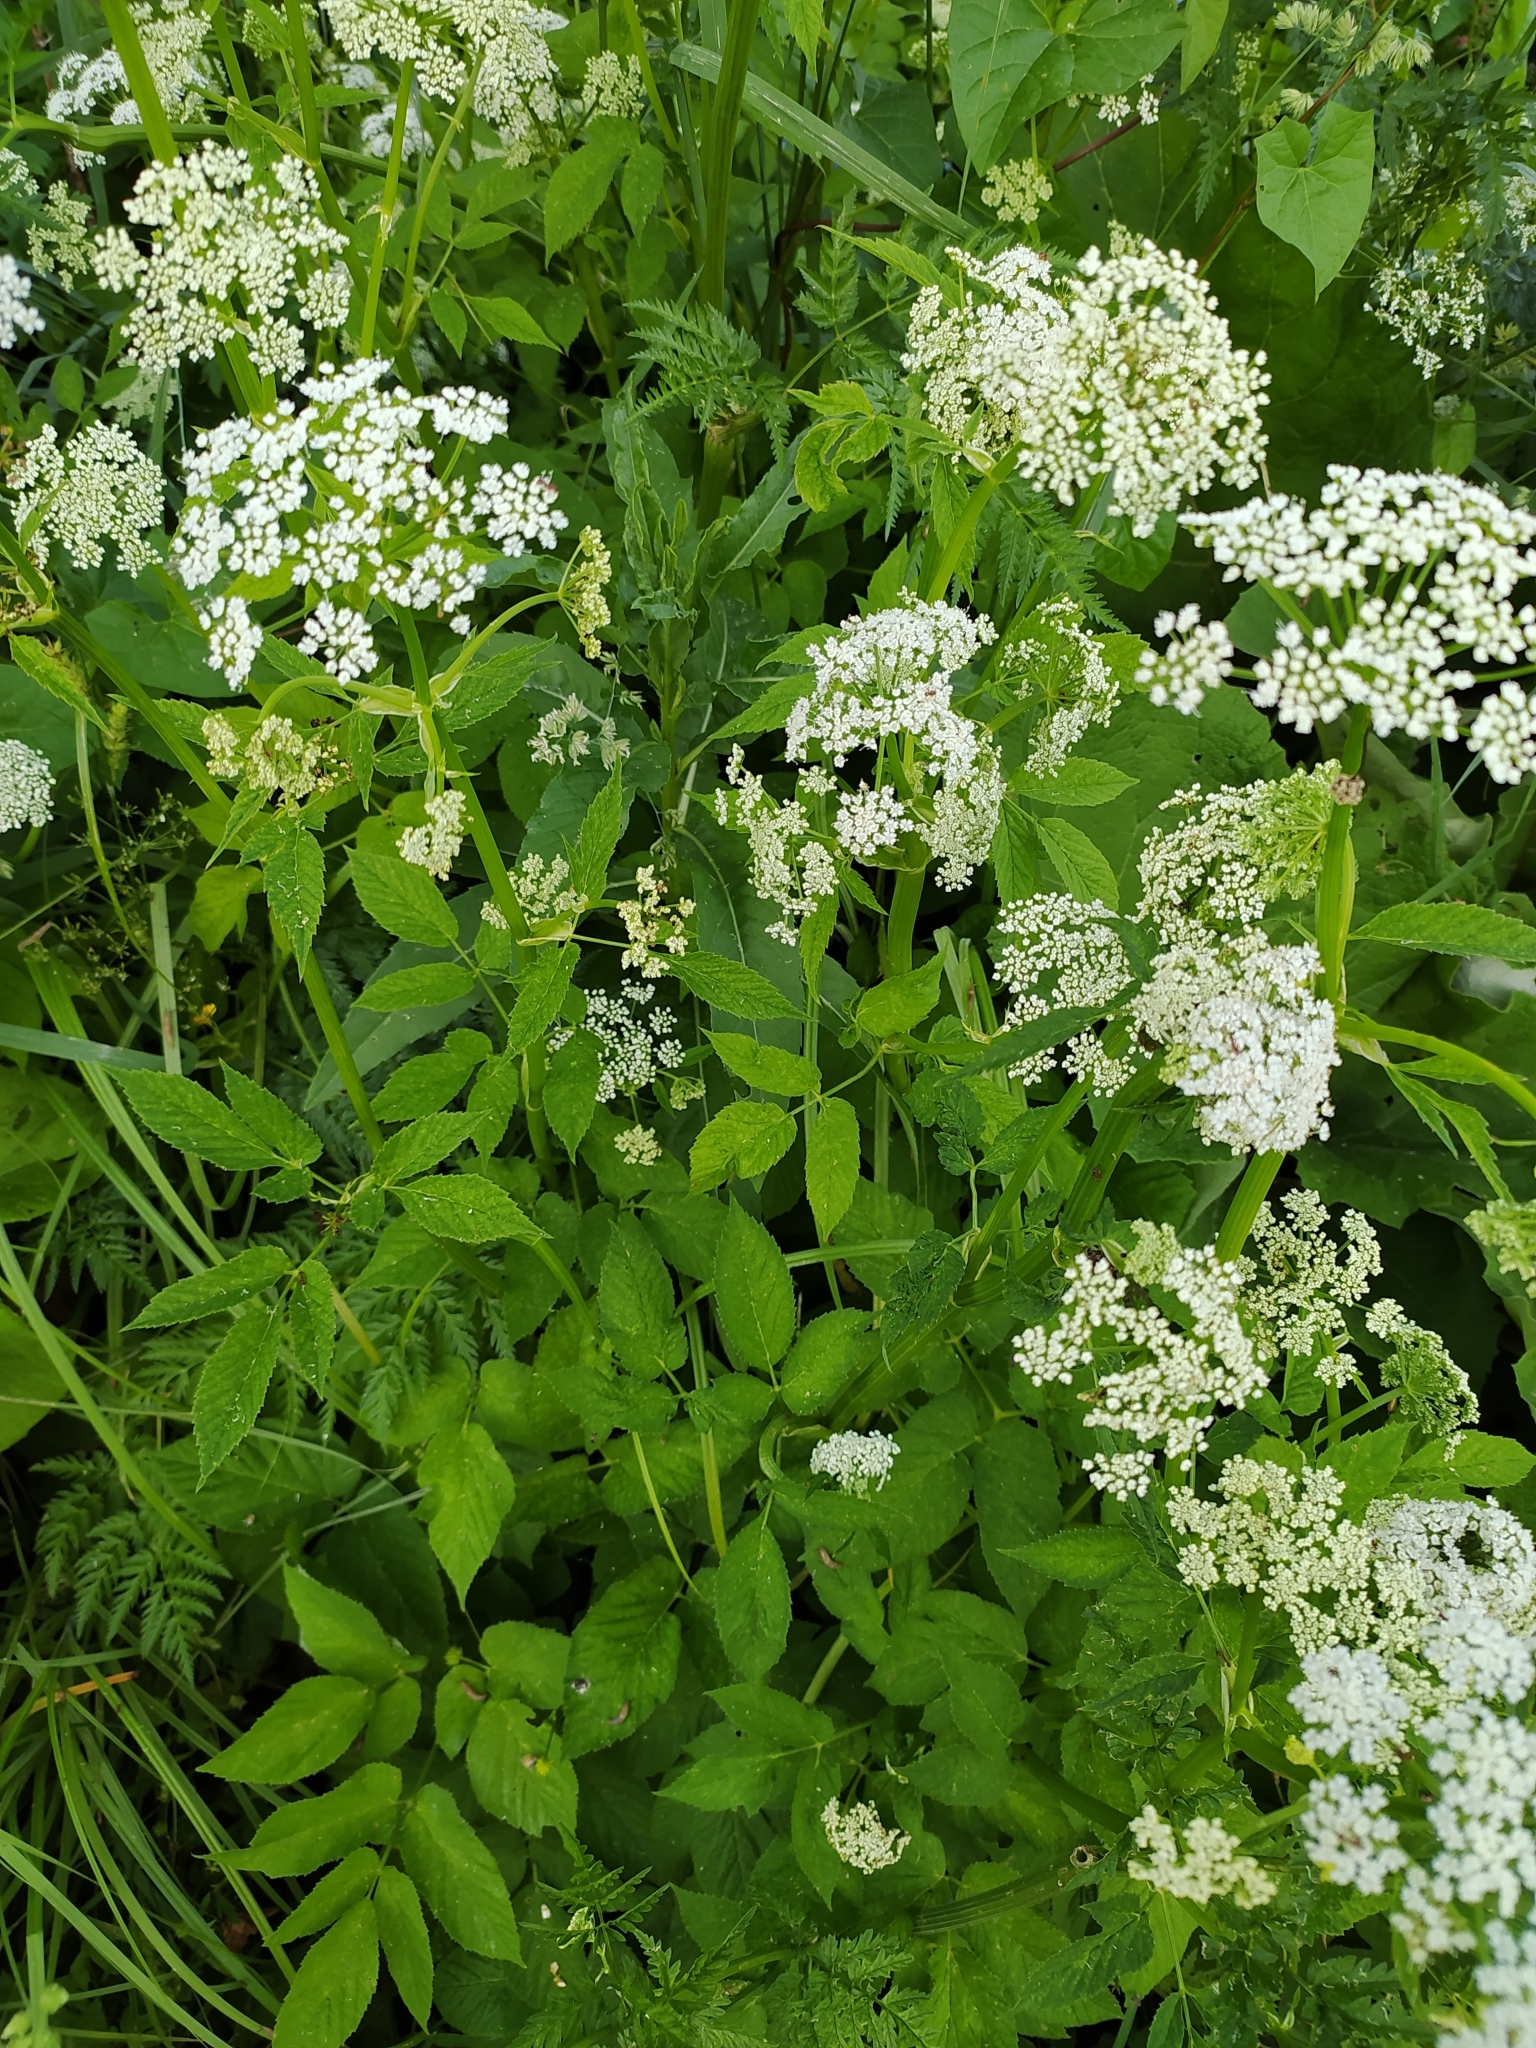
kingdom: Plantae
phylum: Tracheophyta
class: Magnoliopsida
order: Apiales
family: Apiaceae
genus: Aegopodium
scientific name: Aegopodium podagraria
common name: Ground-elder
